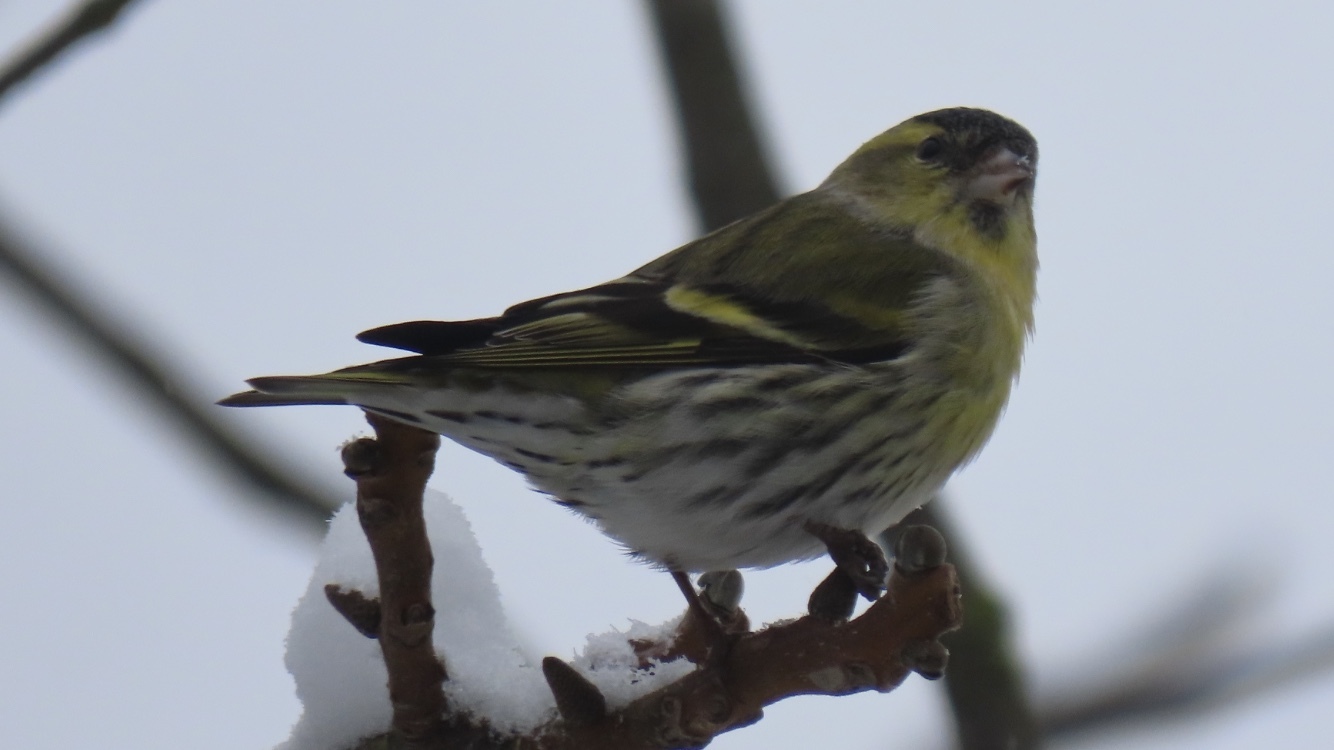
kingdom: Animalia
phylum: Chordata
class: Aves
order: Passeriformes
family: Fringillidae
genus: Spinus
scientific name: Spinus spinus
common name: Eurasian siskin
